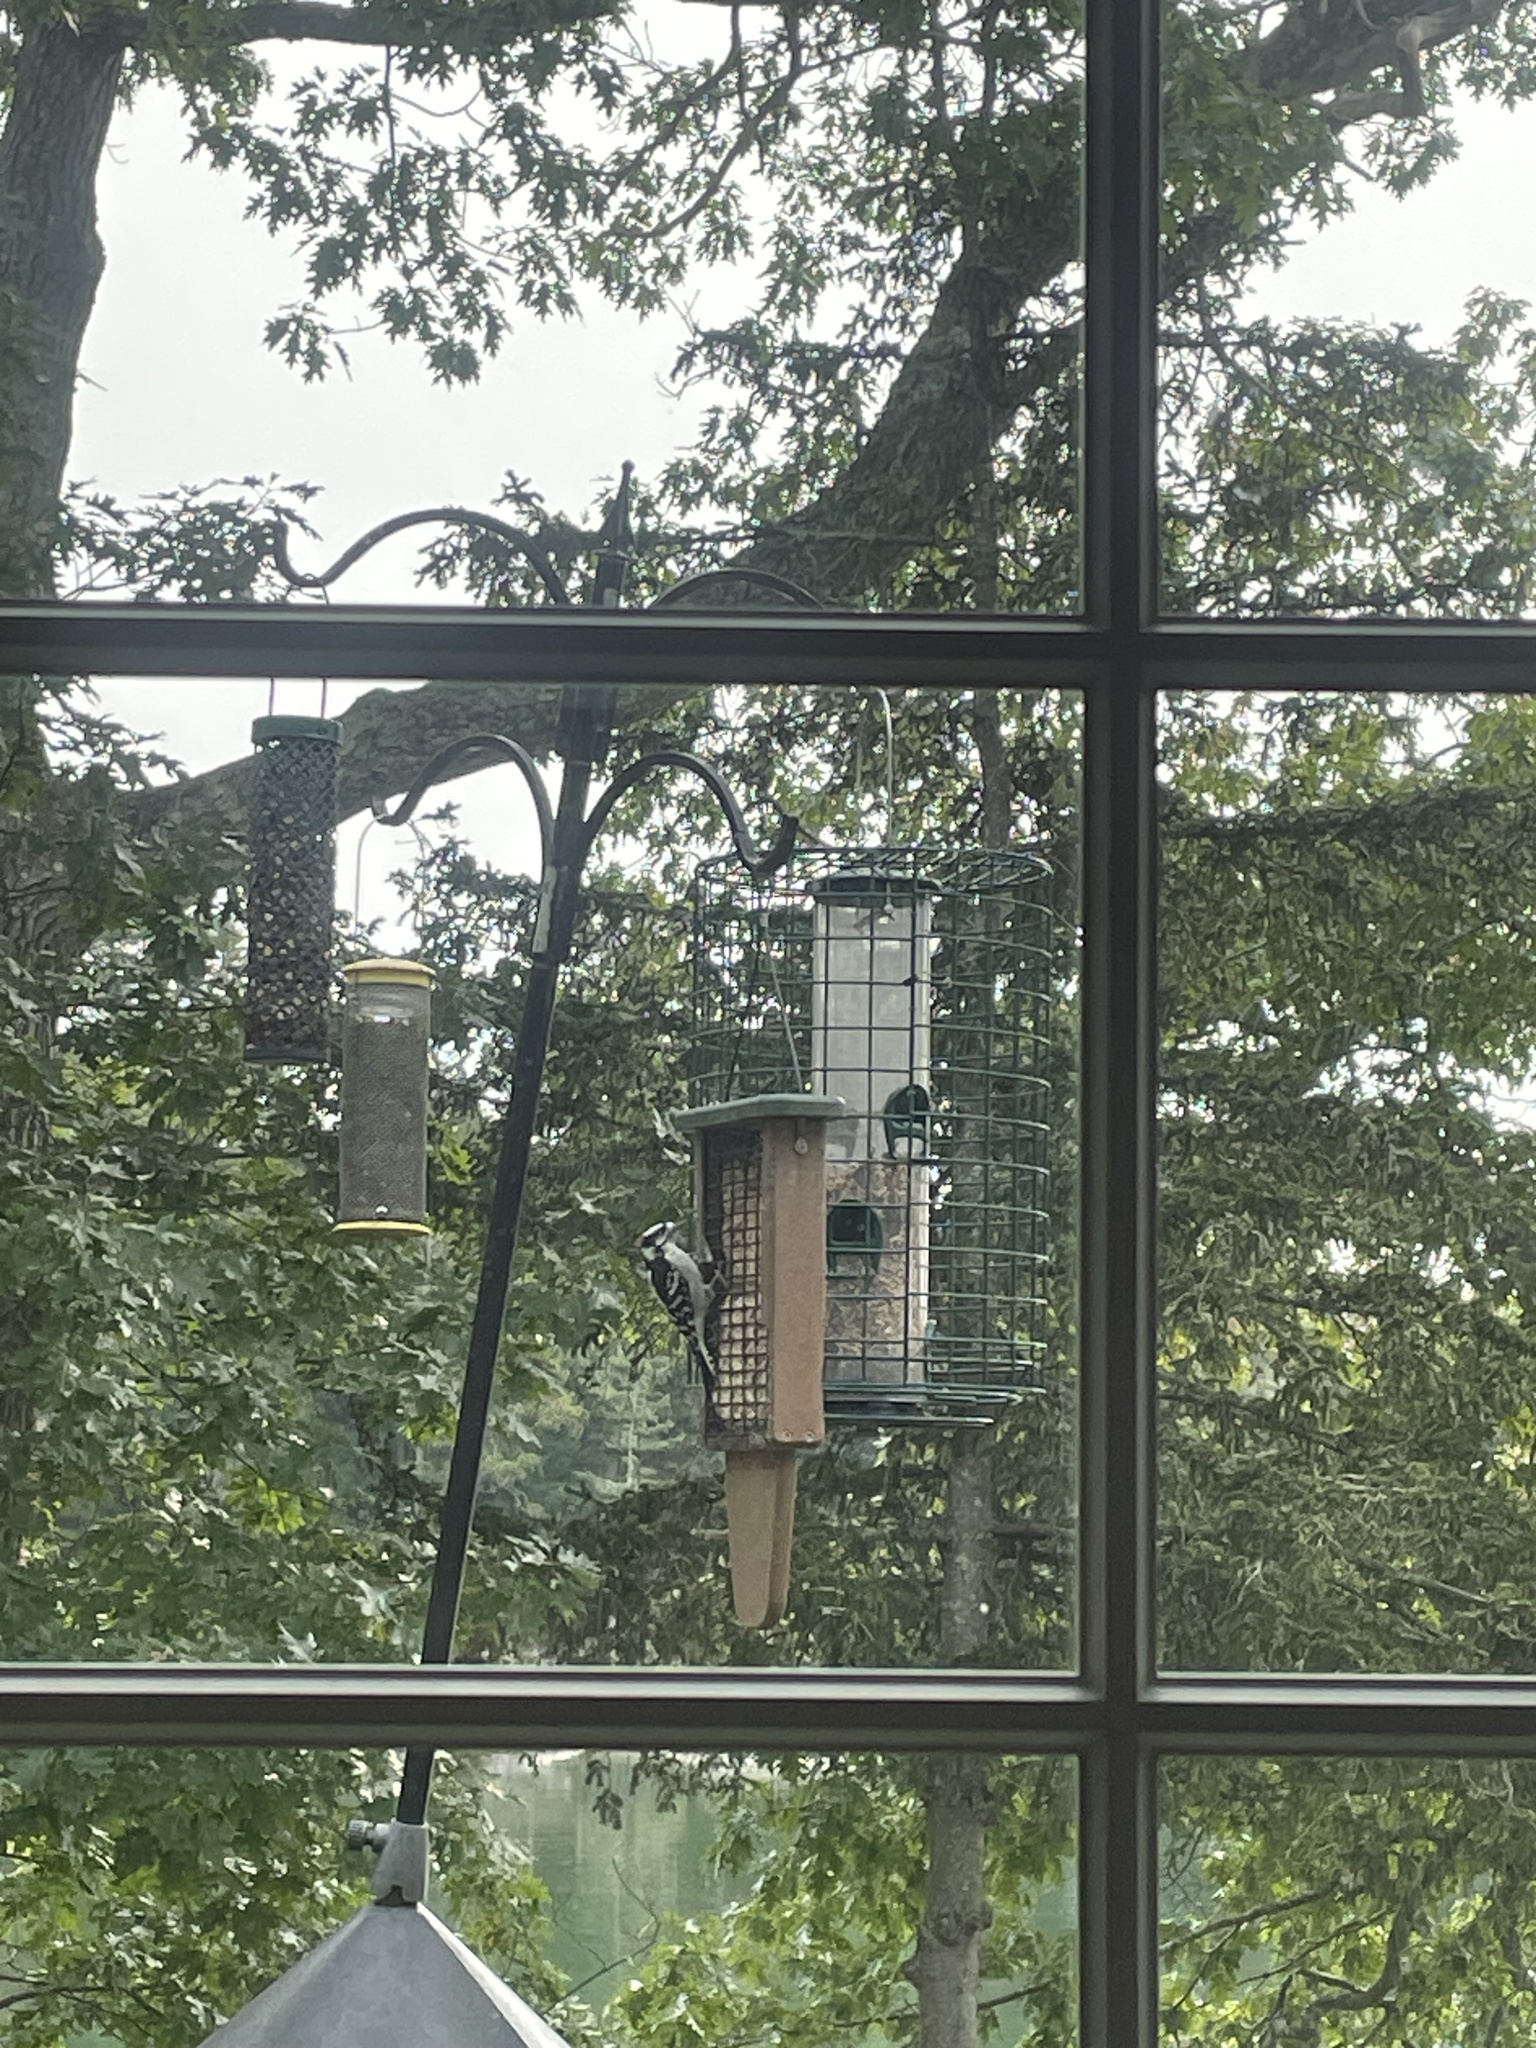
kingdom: Animalia
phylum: Chordata
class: Aves
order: Piciformes
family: Picidae
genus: Dryobates
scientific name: Dryobates pubescens
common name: Downy woodpecker
